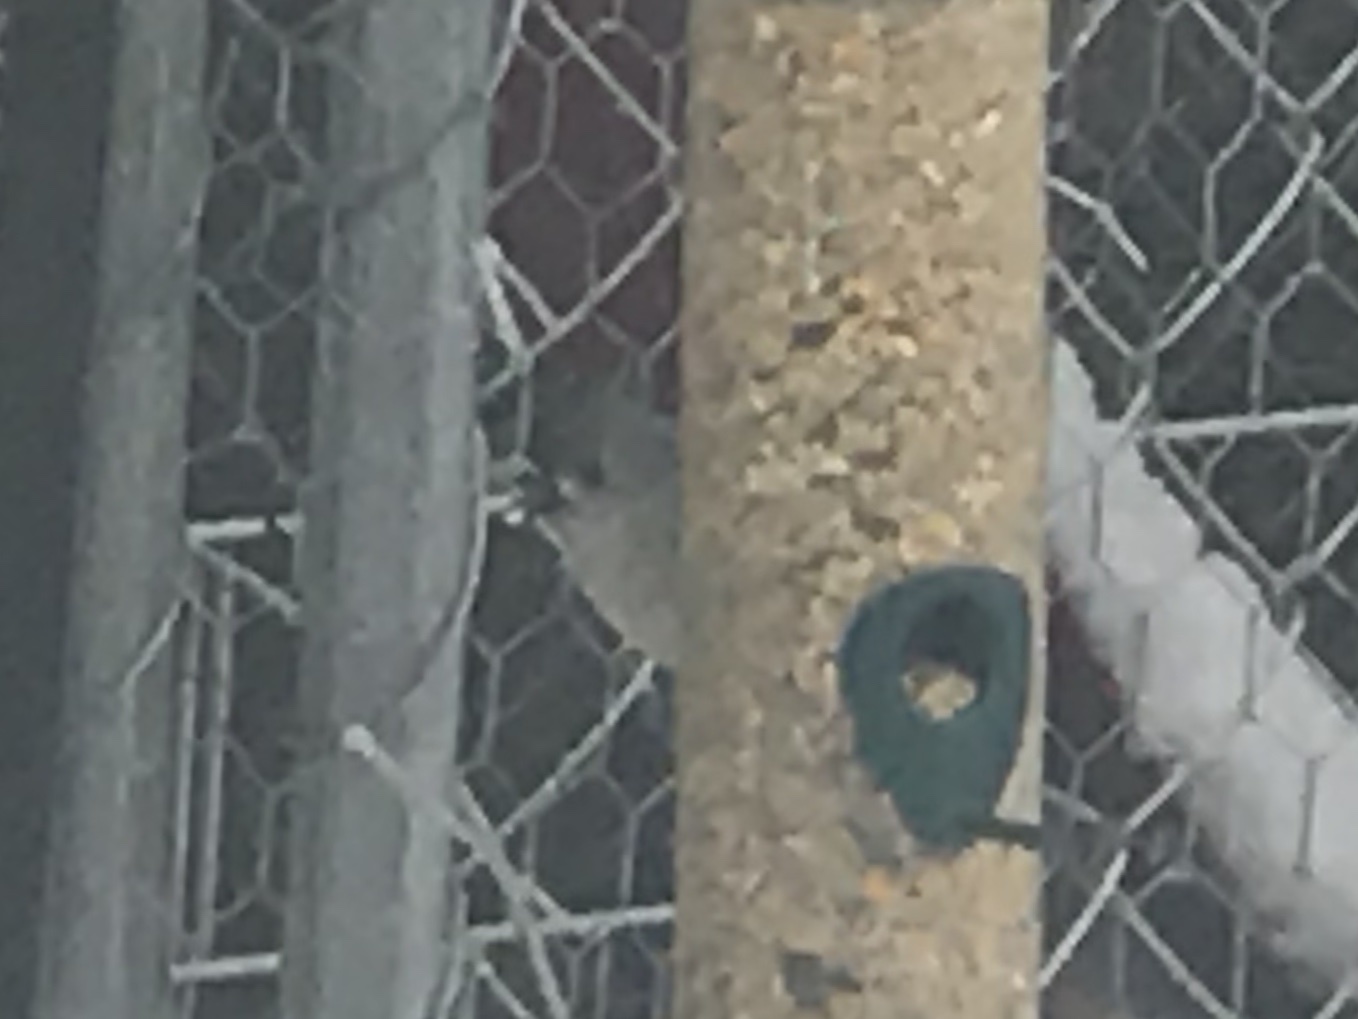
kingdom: Animalia
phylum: Chordata
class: Aves
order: Passeriformes
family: Paridae
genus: Baeolophus
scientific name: Baeolophus bicolor
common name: Tufted titmouse
